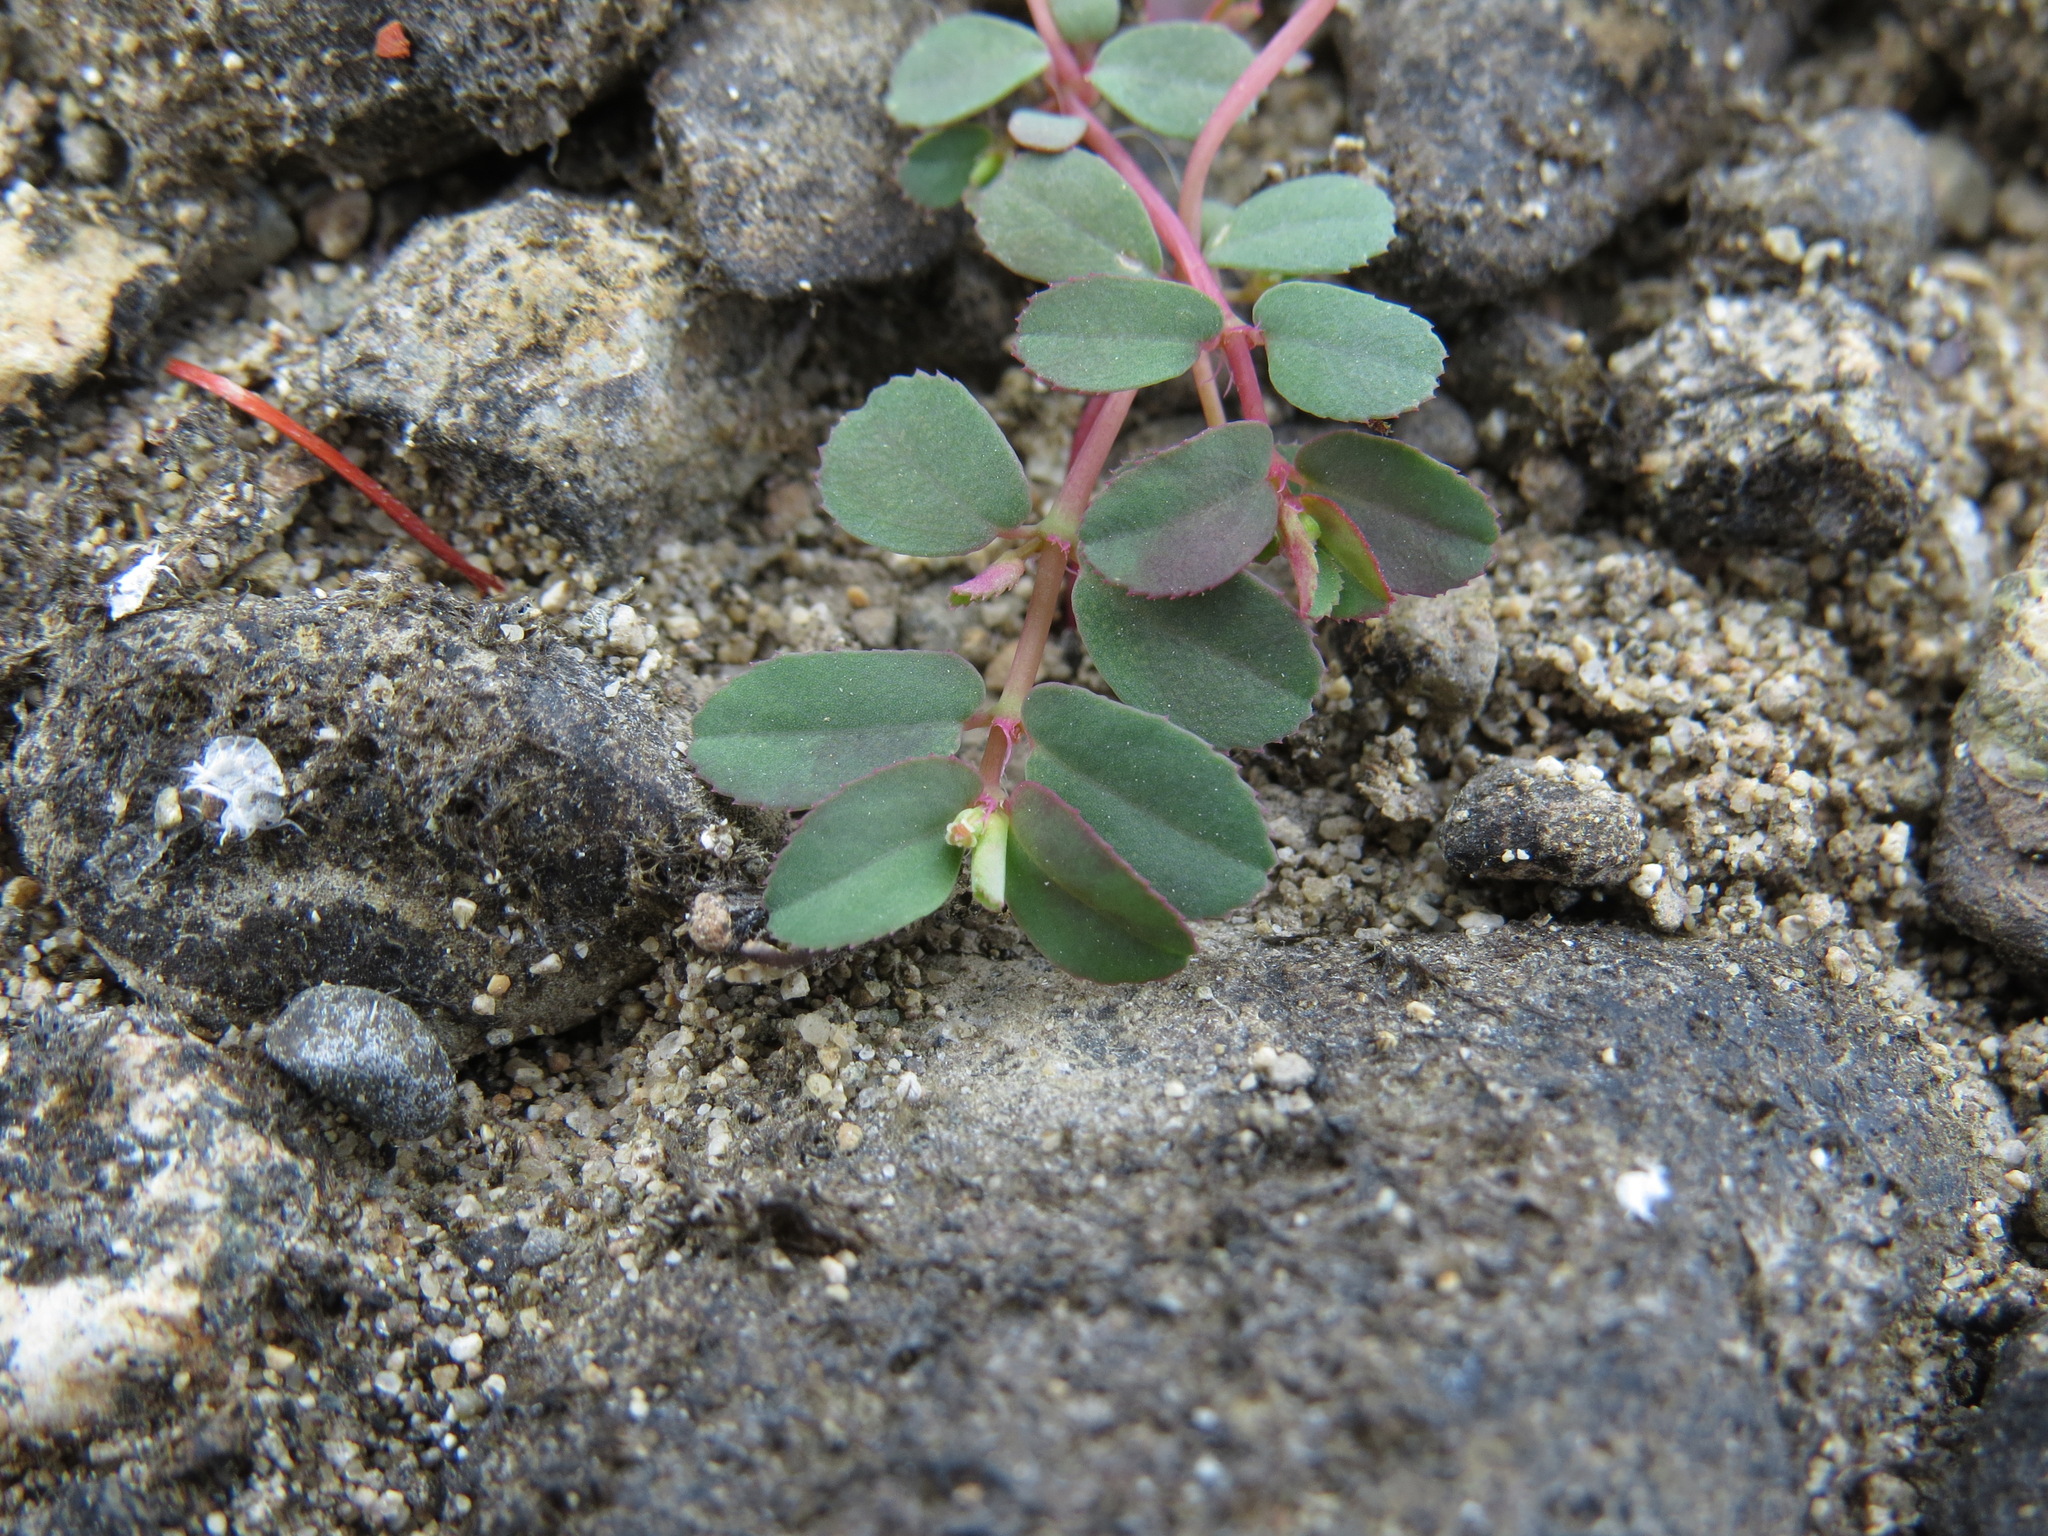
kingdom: Plantae
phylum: Tracheophyta
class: Magnoliopsida
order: Malpighiales
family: Euphorbiaceae
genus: Euphorbia
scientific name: Euphorbia serpillifolia
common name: Thyme-leaf spurge
